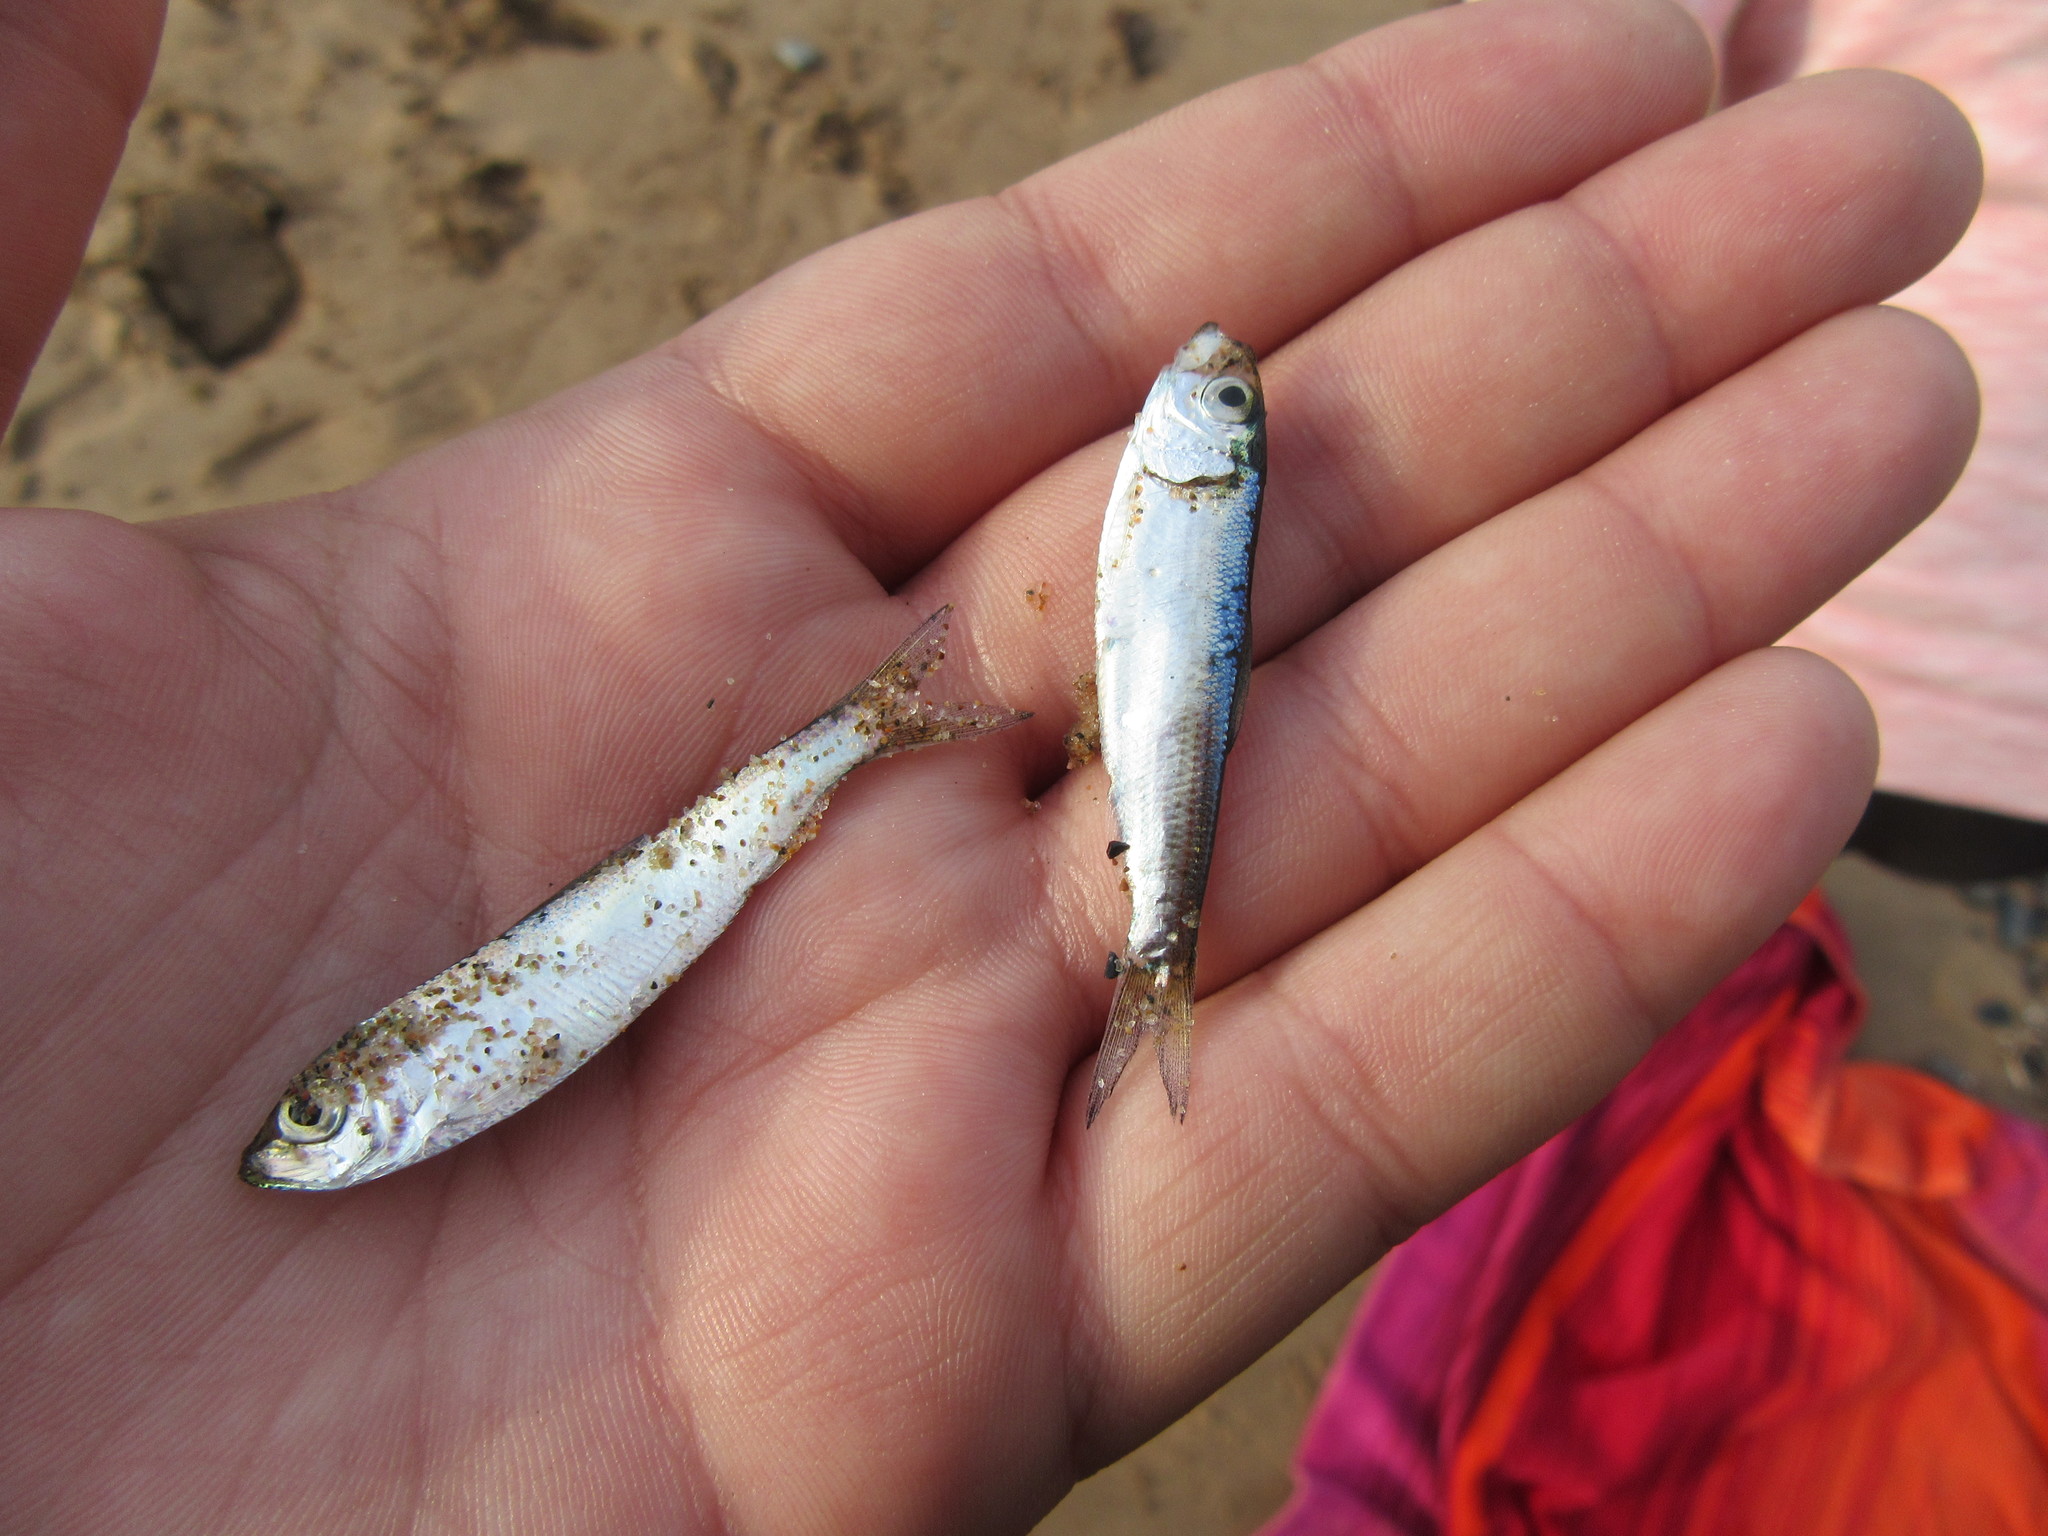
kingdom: Animalia
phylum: Chordata
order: Clupeiformes
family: Clupeidae
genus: Alosa
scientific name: Alosa pseudoharengus
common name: Alewife
